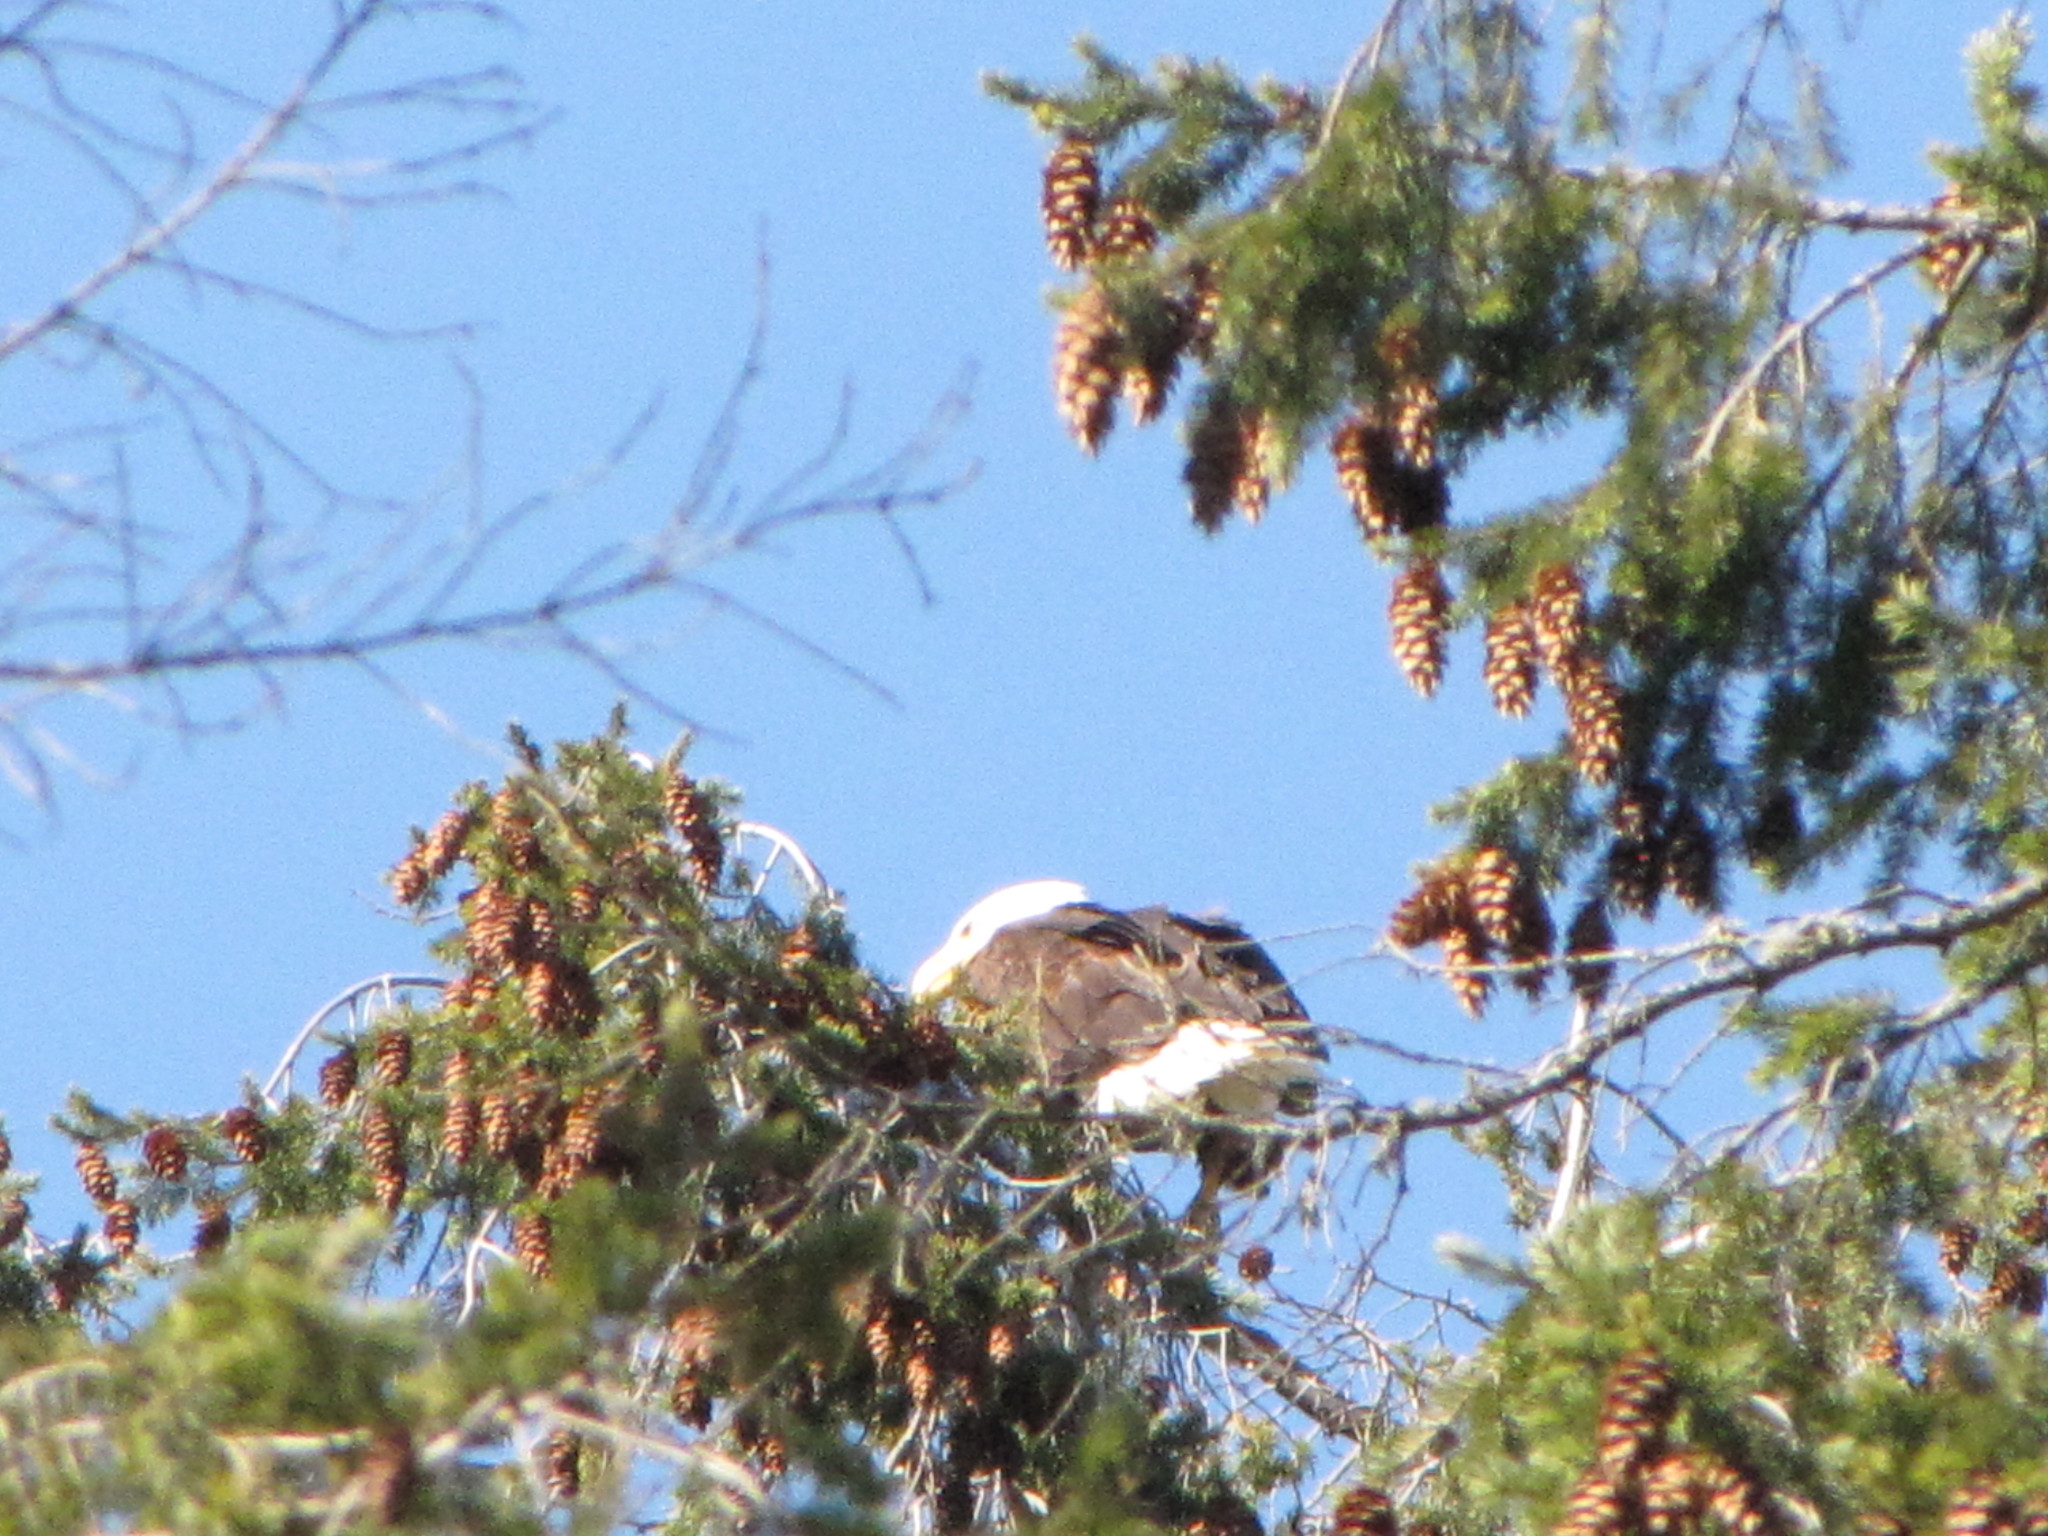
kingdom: Animalia
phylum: Chordata
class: Aves
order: Accipitriformes
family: Accipitridae
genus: Haliaeetus
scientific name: Haliaeetus leucocephalus
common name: Bald eagle
